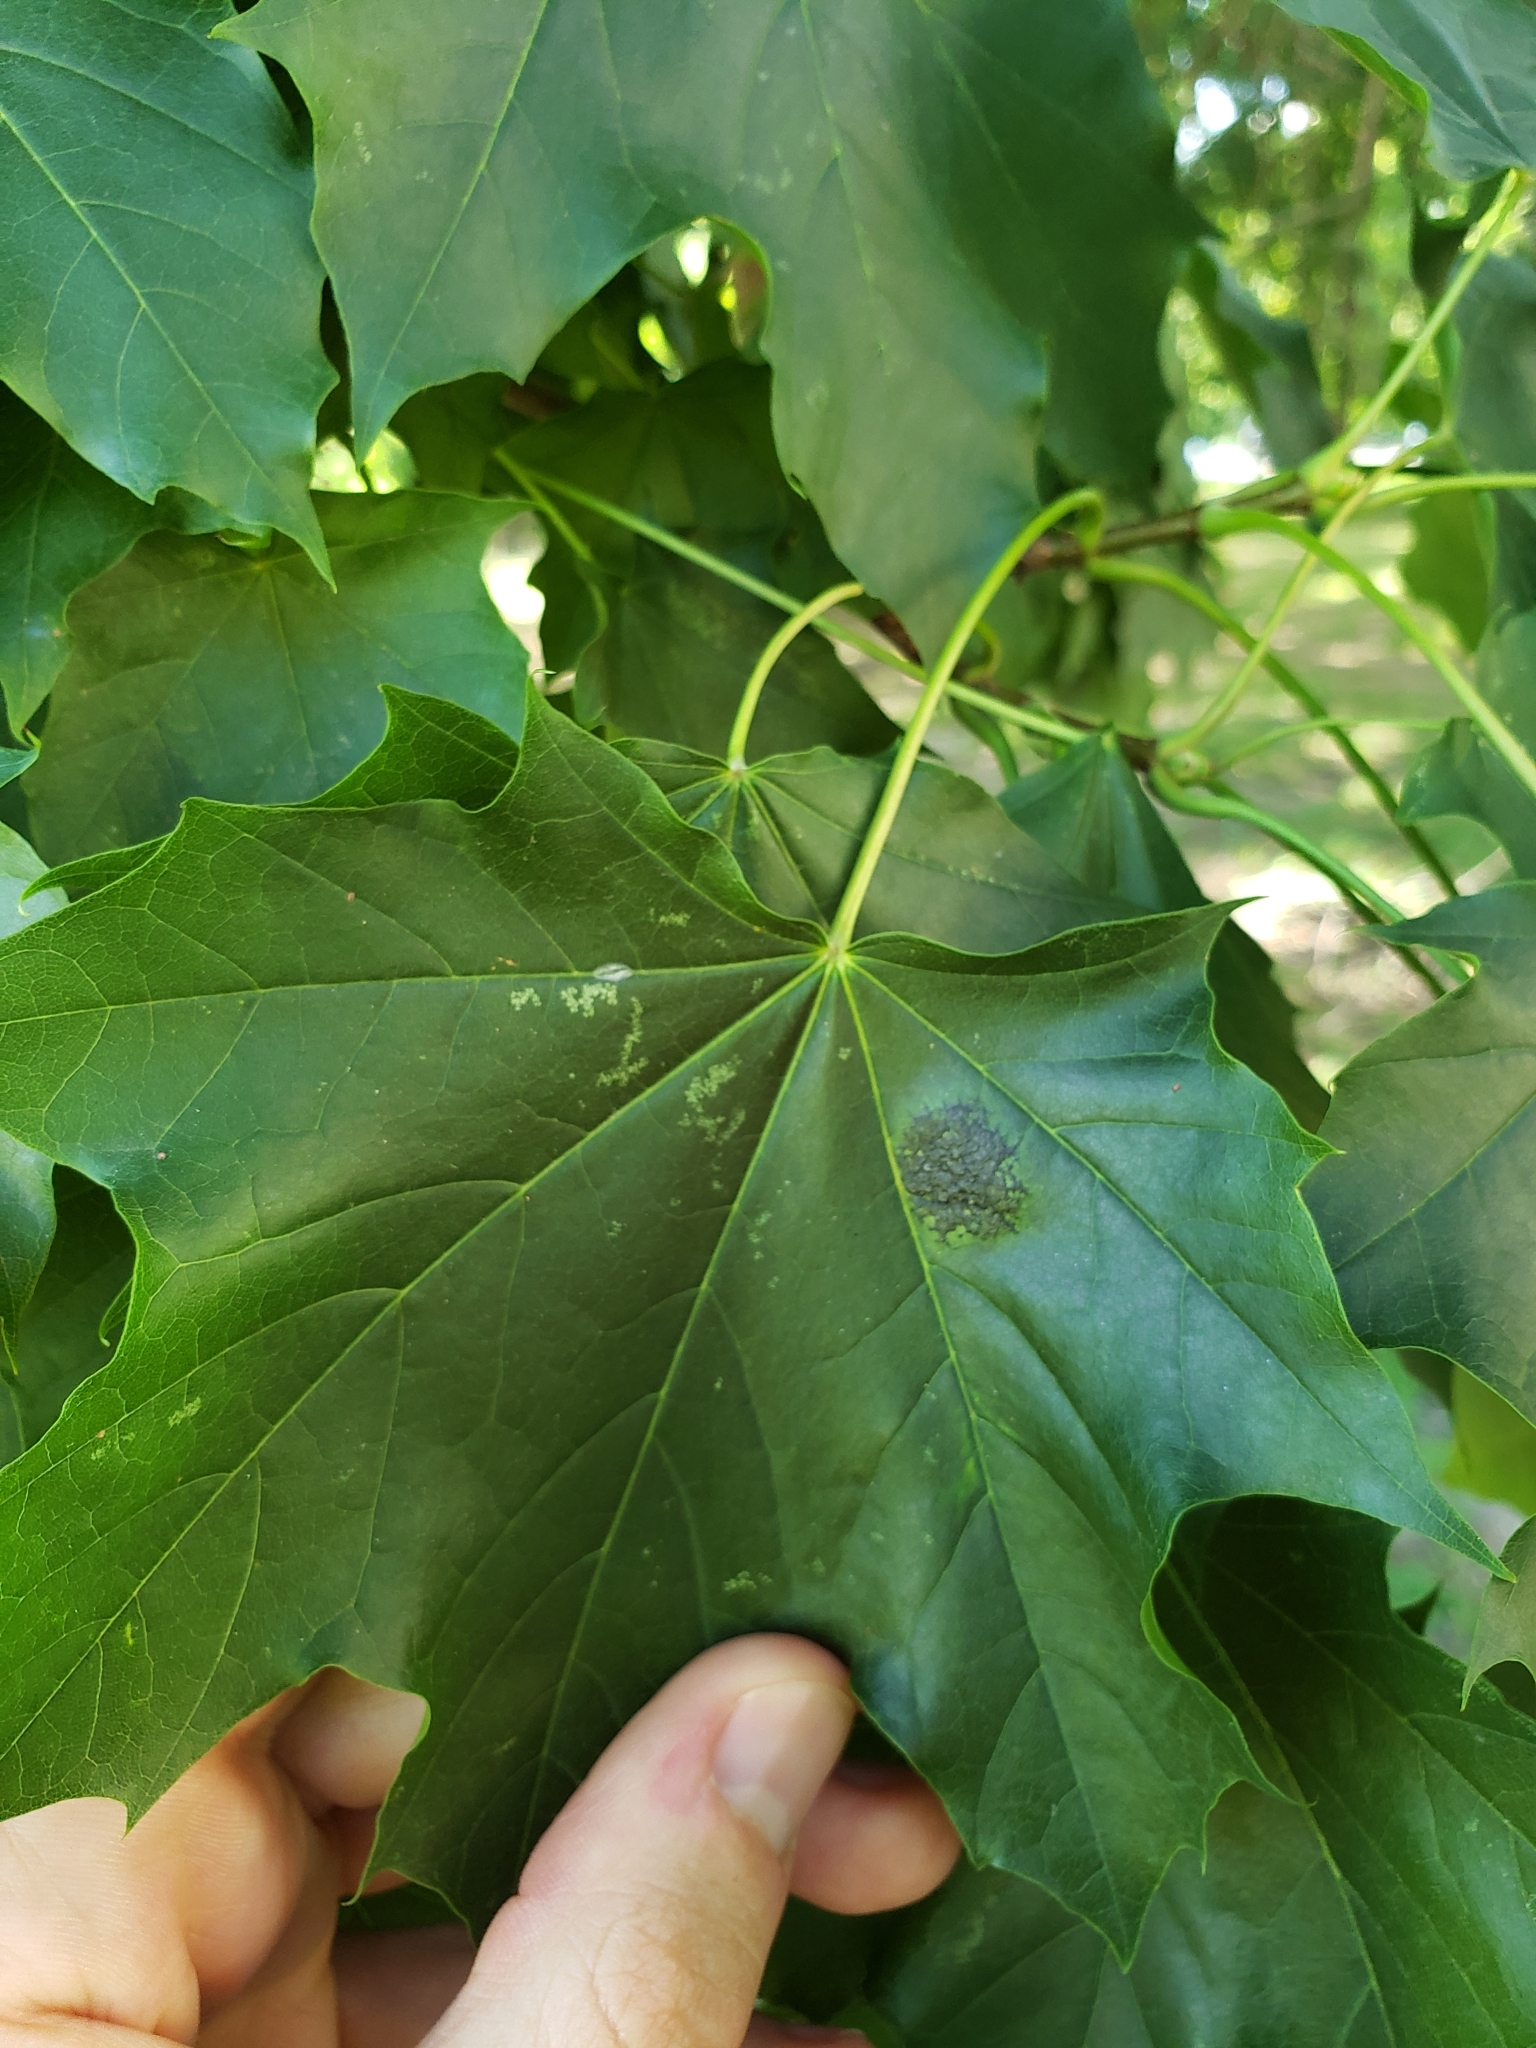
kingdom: Fungi
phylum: Ascomycota
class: Leotiomycetes
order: Rhytismatales
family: Rhytismataceae
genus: Rhytisma
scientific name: Rhytisma acerinum
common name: European tar spot
